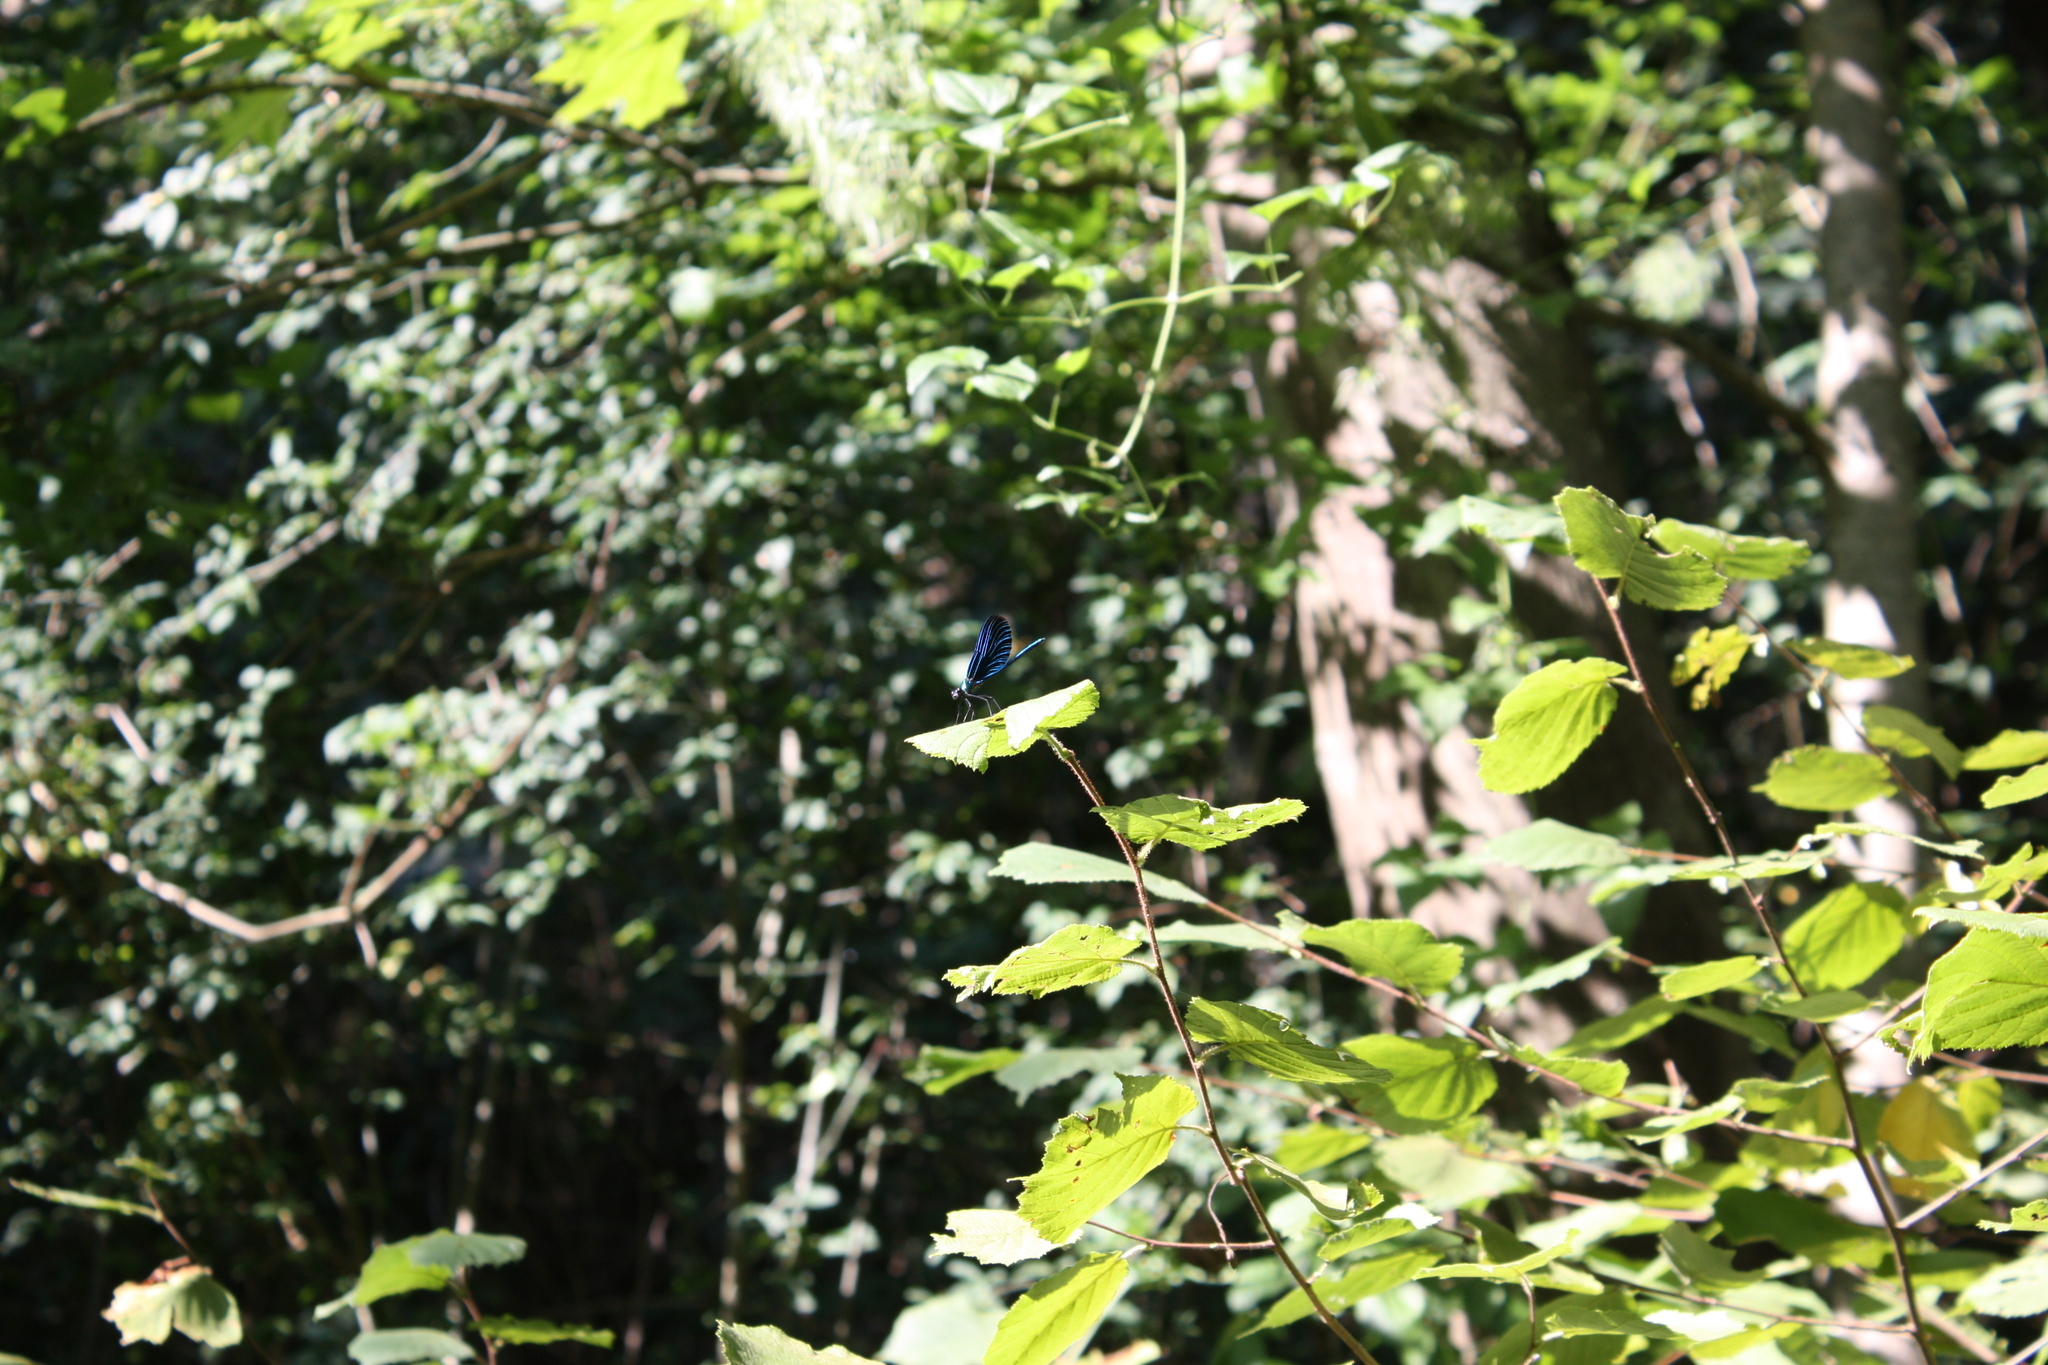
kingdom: Animalia
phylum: Arthropoda
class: Insecta
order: Odonata
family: Calopterygidae
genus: Calopteryx
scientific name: Calopteryx virgo
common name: Beautiful demoiselle
